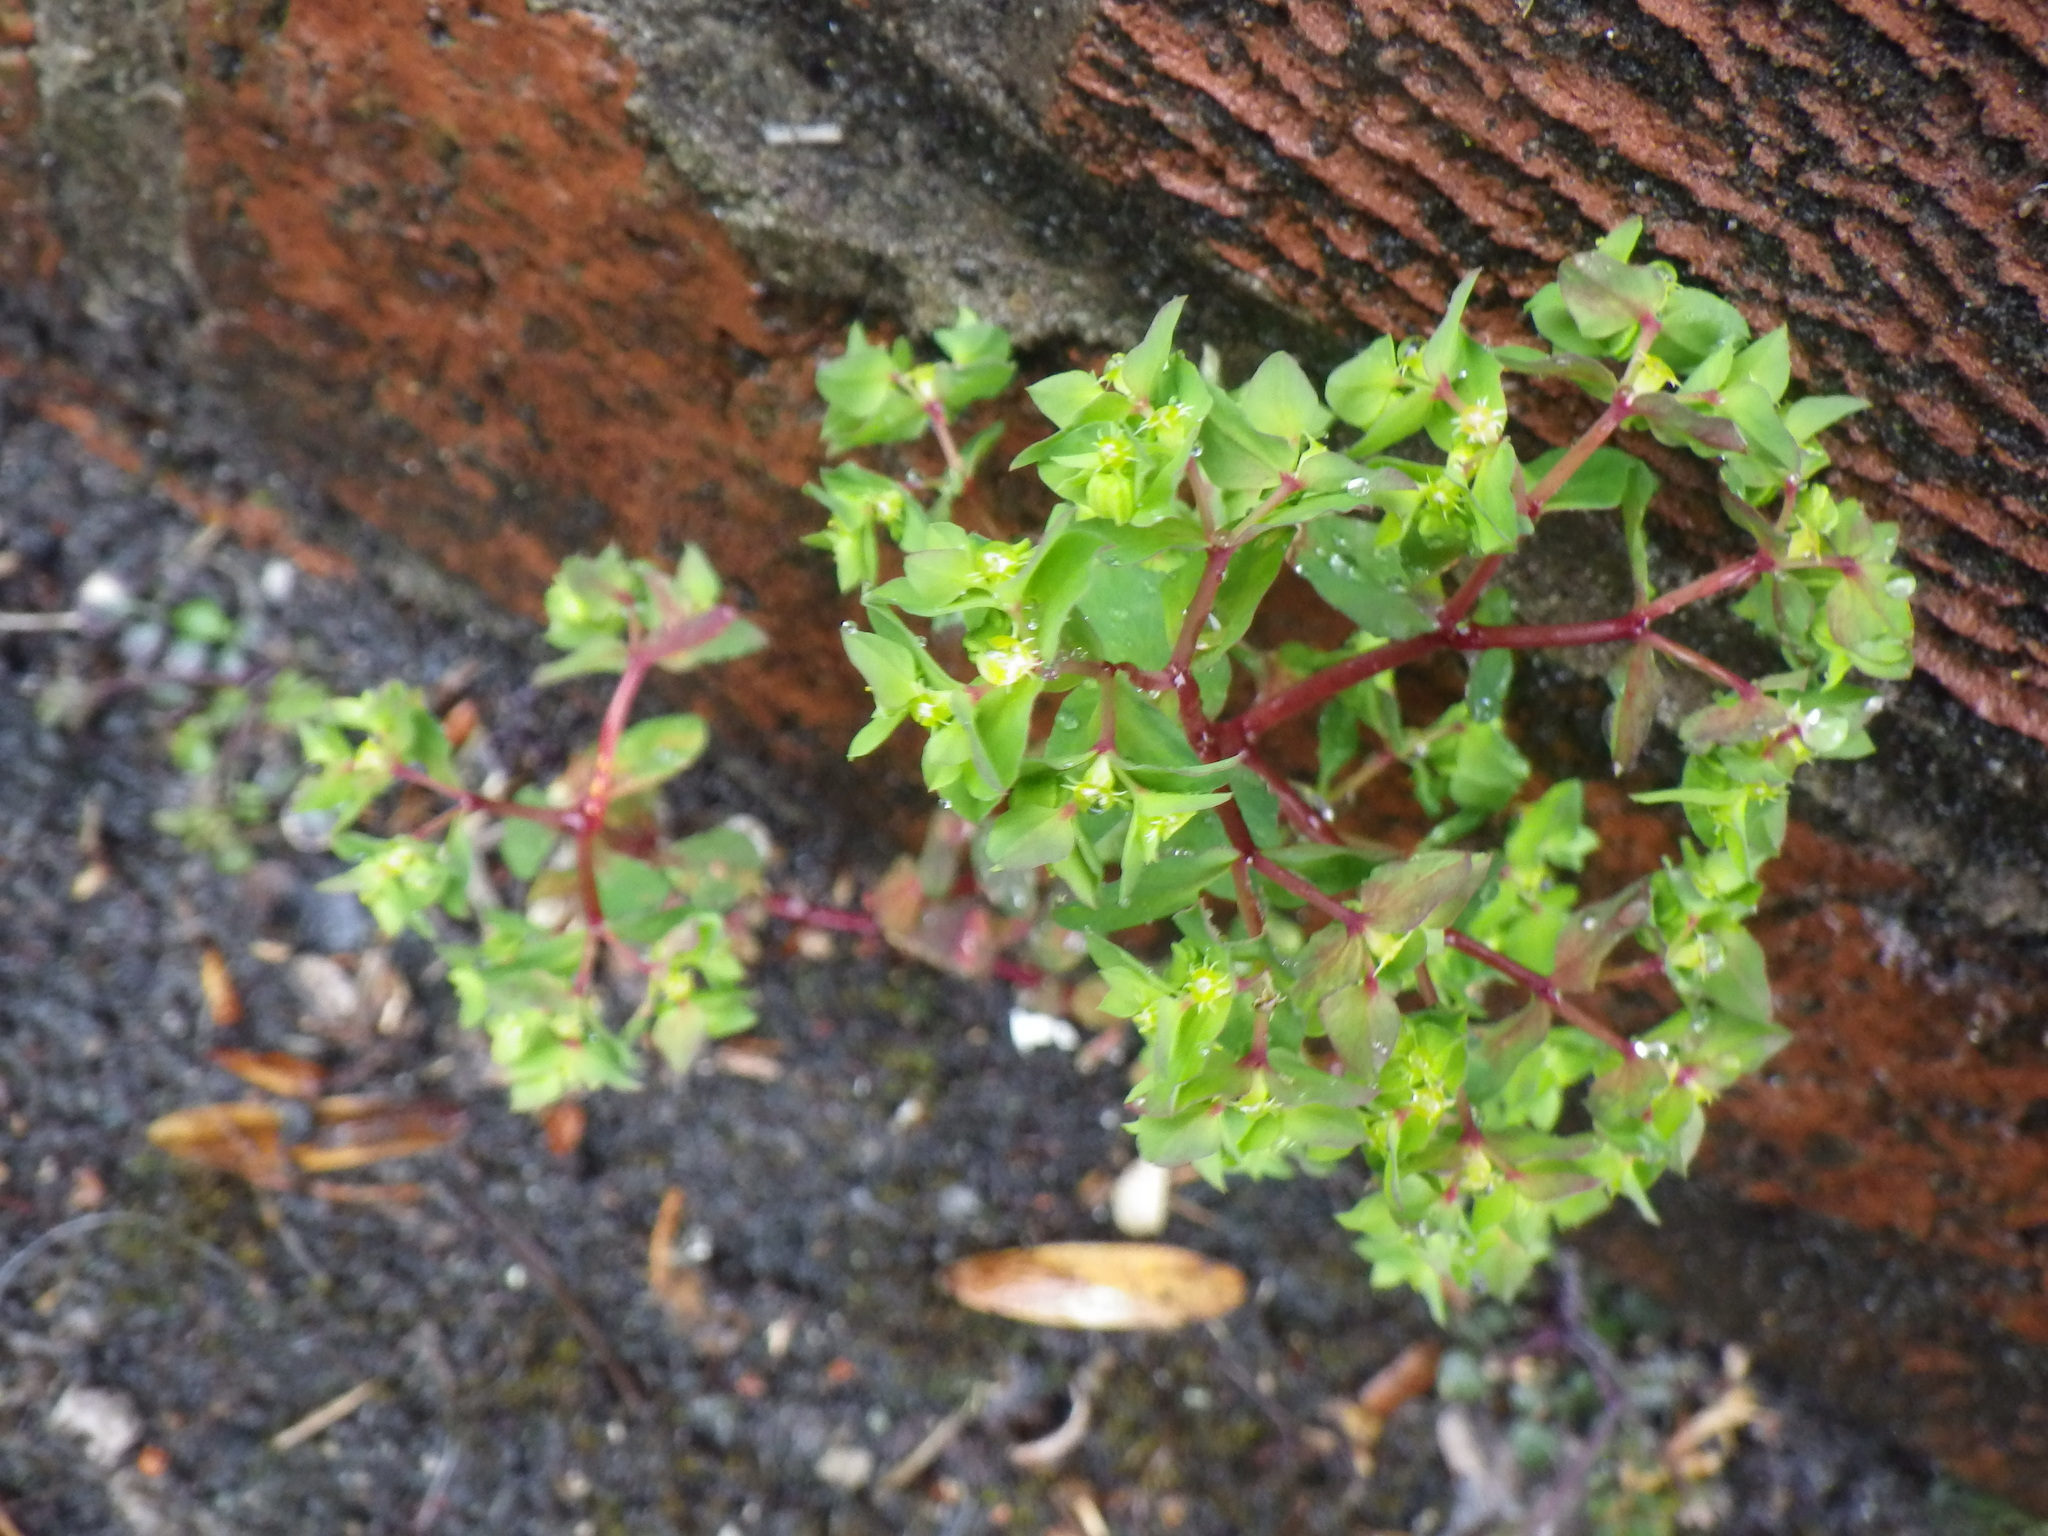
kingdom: Plantae
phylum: Tracheophyta
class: Magnoliopsida
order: Malpighiales
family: Euphorbiaceae
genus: Euphorbia
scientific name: Euphorbia peplus
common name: Petty spurge
